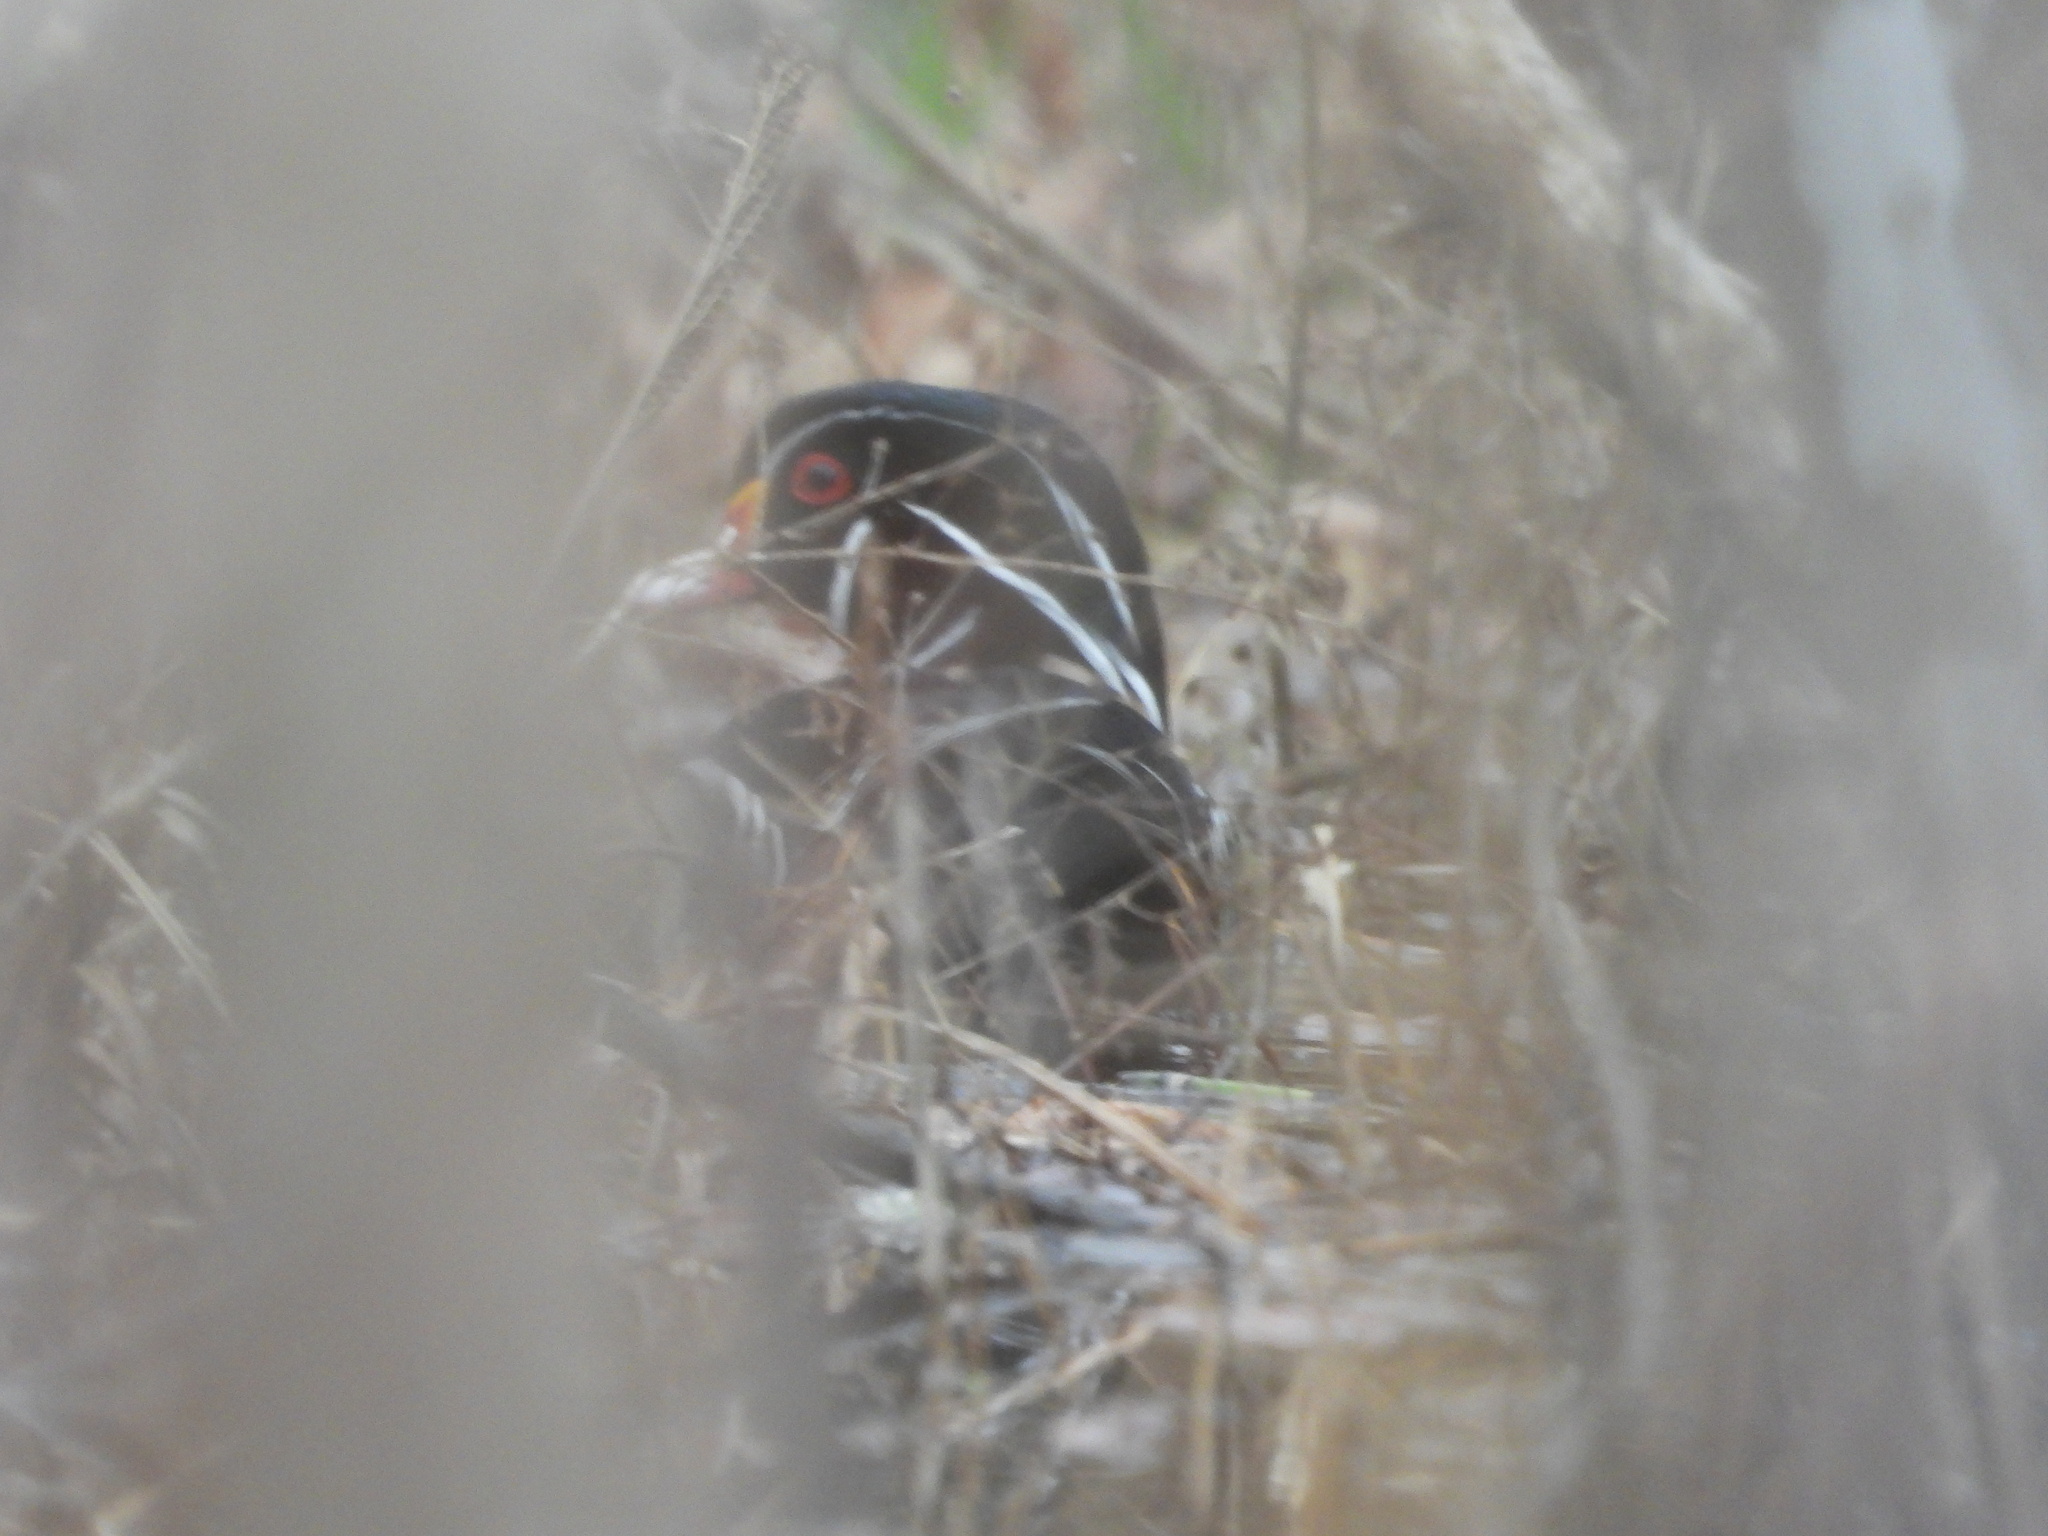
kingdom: Animalia
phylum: Chordata
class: Aves
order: Anseriformes
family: Anatidae
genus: Aix
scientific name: Aix sponsa
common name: Wood duck
